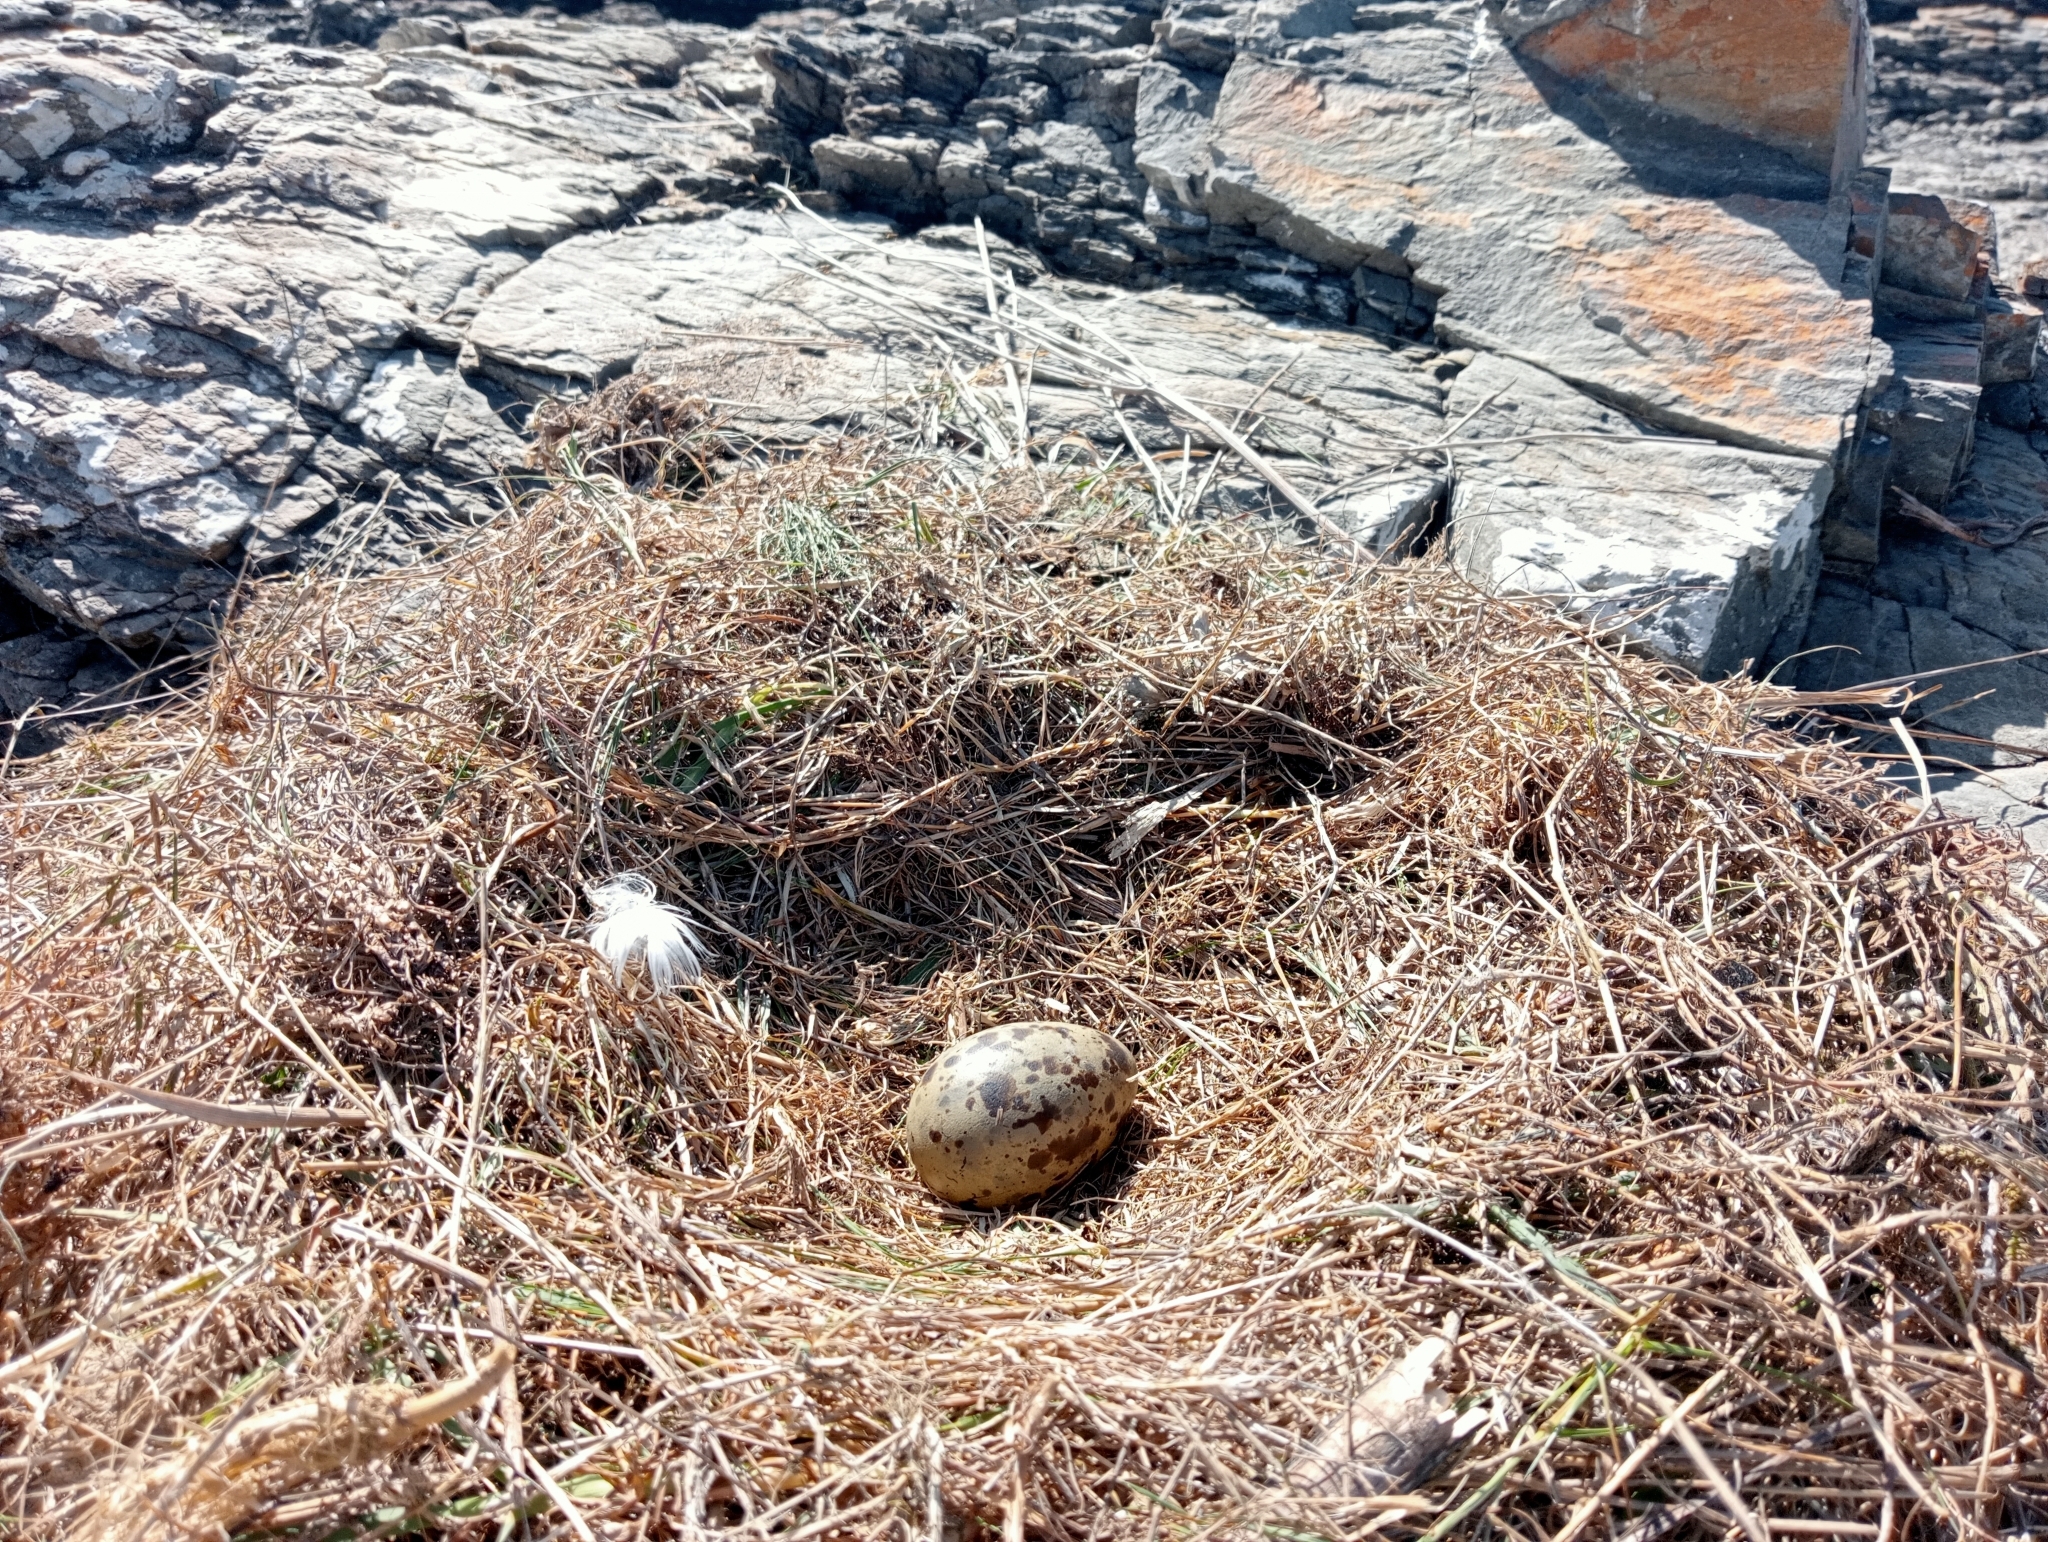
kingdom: Animalia
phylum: Chordata
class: Aves
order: Charadriiformes
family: Laridae
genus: Larus
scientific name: Larus dominicanus
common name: Kelp gull
